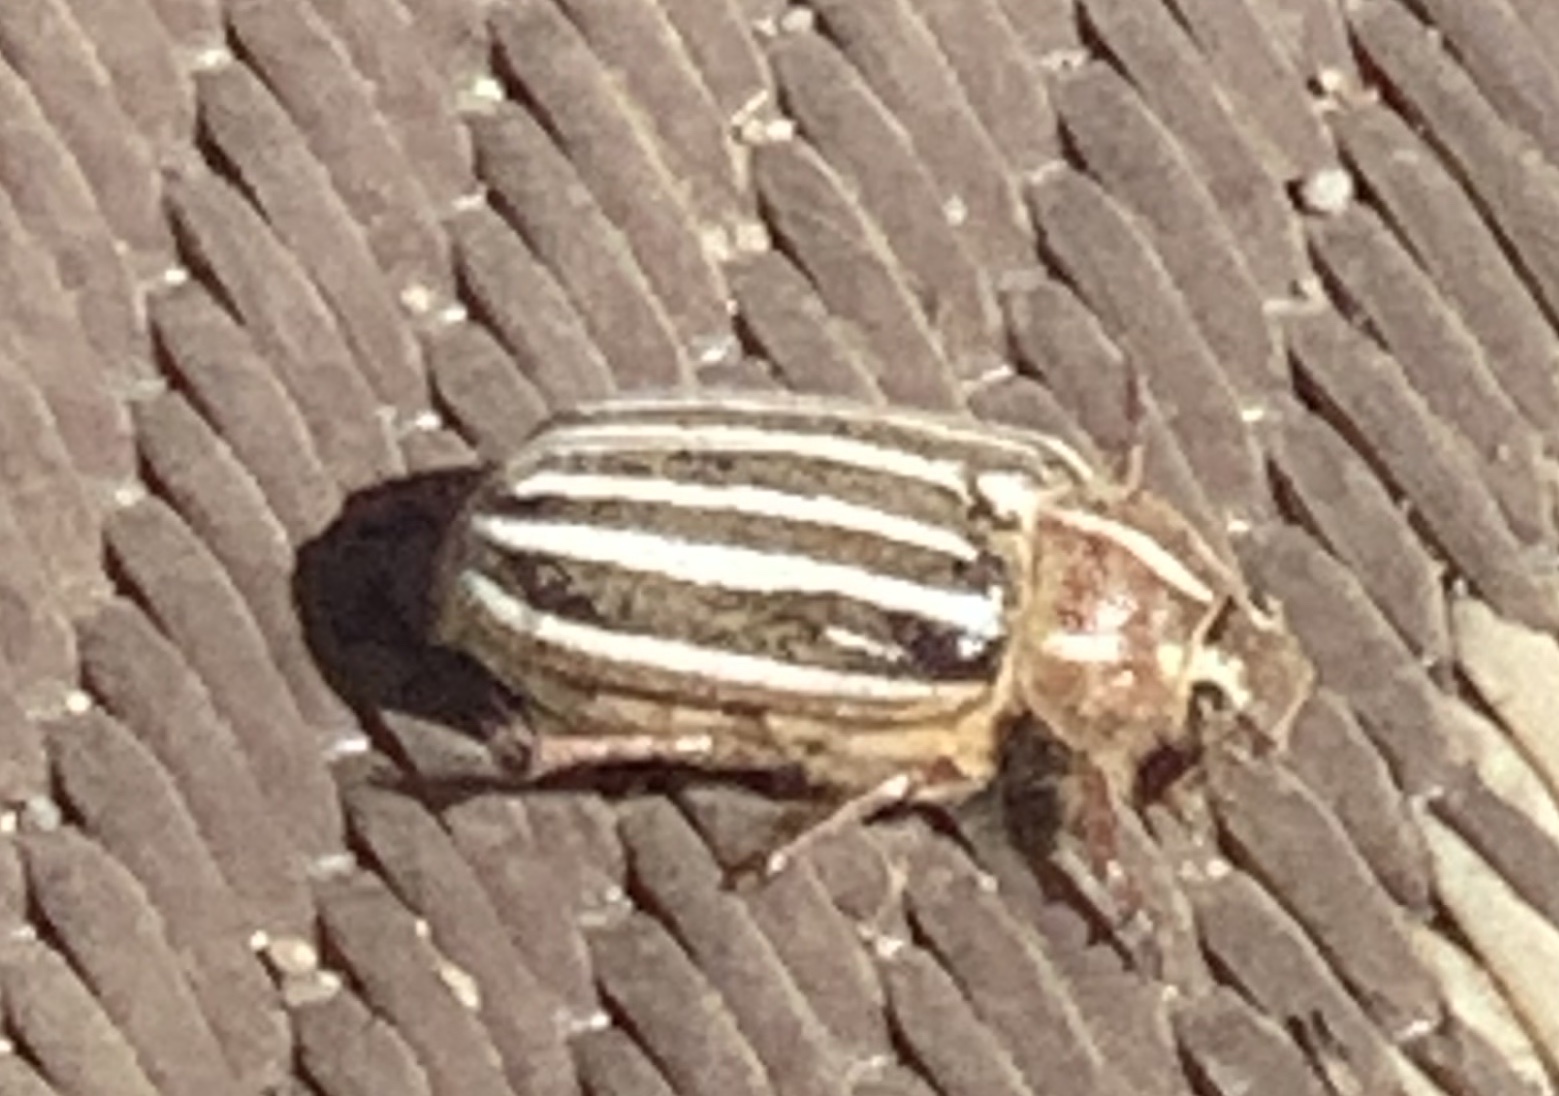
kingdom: Animalia
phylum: Arthropoda
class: Insecta
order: Coleoptera
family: Scarabaeidae
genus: Polyphylla
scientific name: Polyphylla decemlineata
